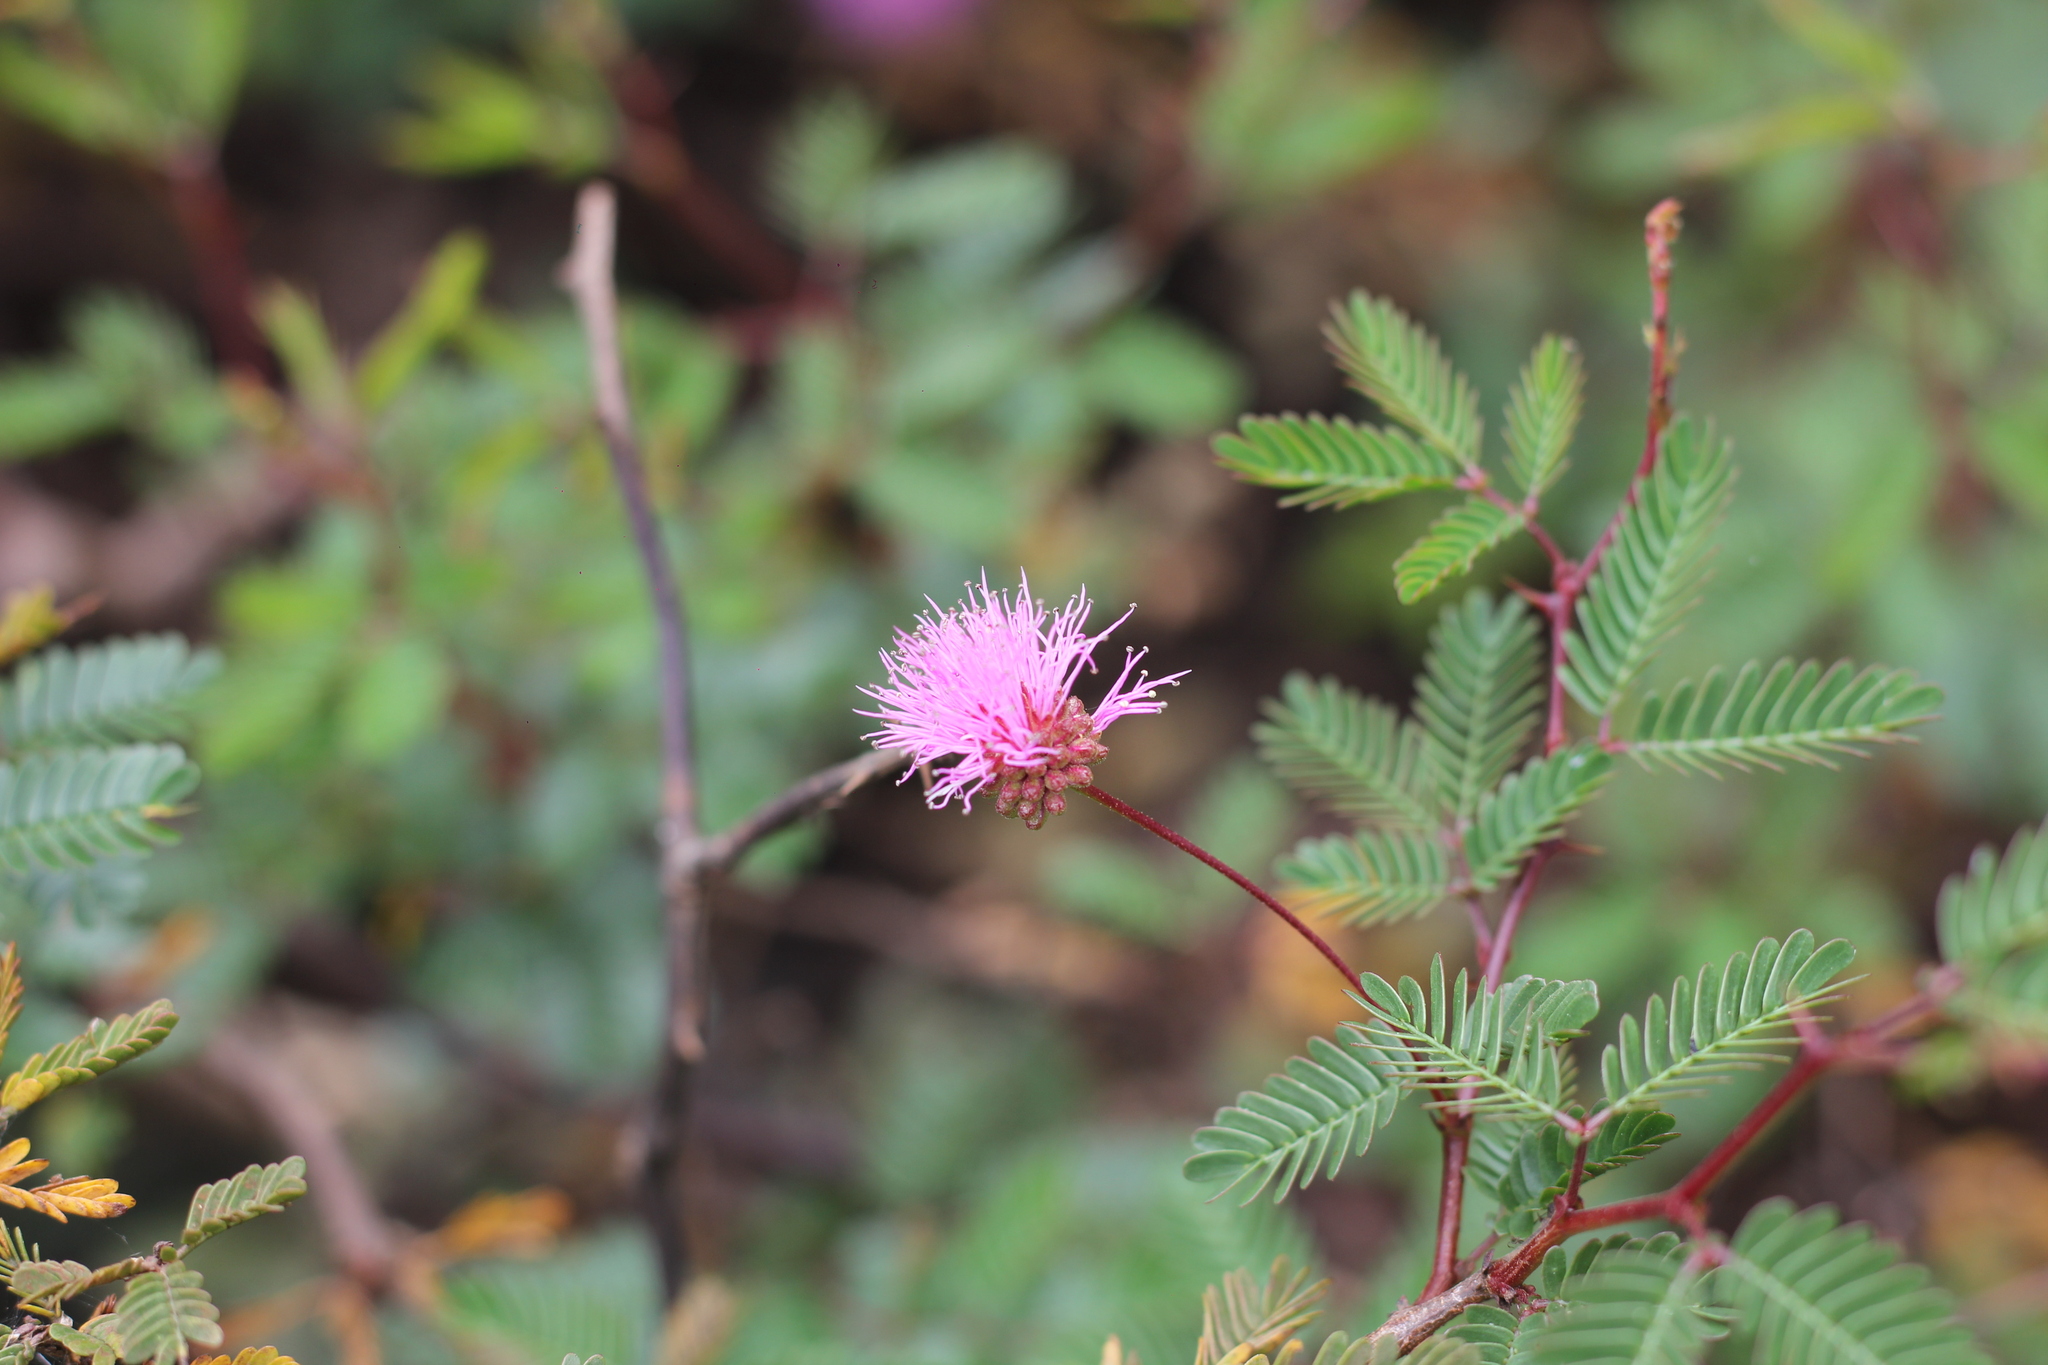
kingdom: Plantae
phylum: Tracheophyta
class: Magnoliopsida
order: Fabales
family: Fabaceae
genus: Mimosa
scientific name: Mimosa uraguensis
